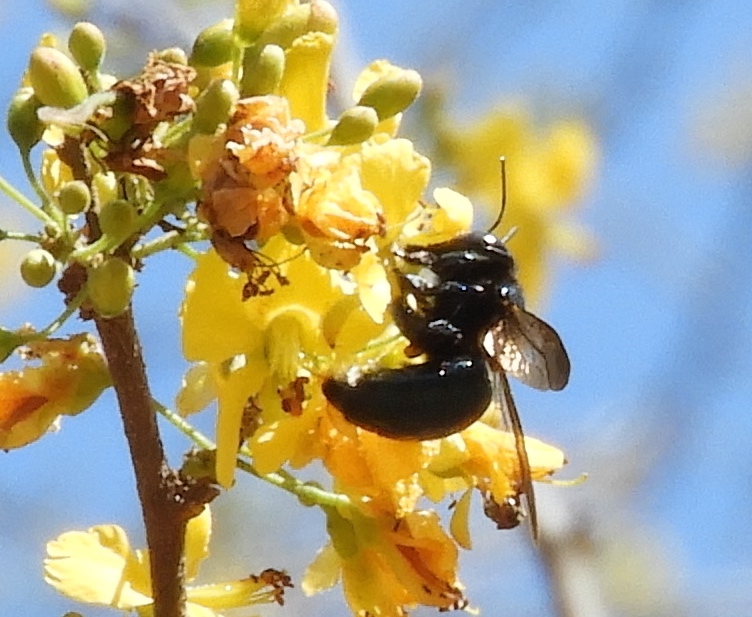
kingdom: Animalia
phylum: Arthropoda
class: Insecta
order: Hymenoptera
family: Apidae
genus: Xylocopa
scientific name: Xylocopa
